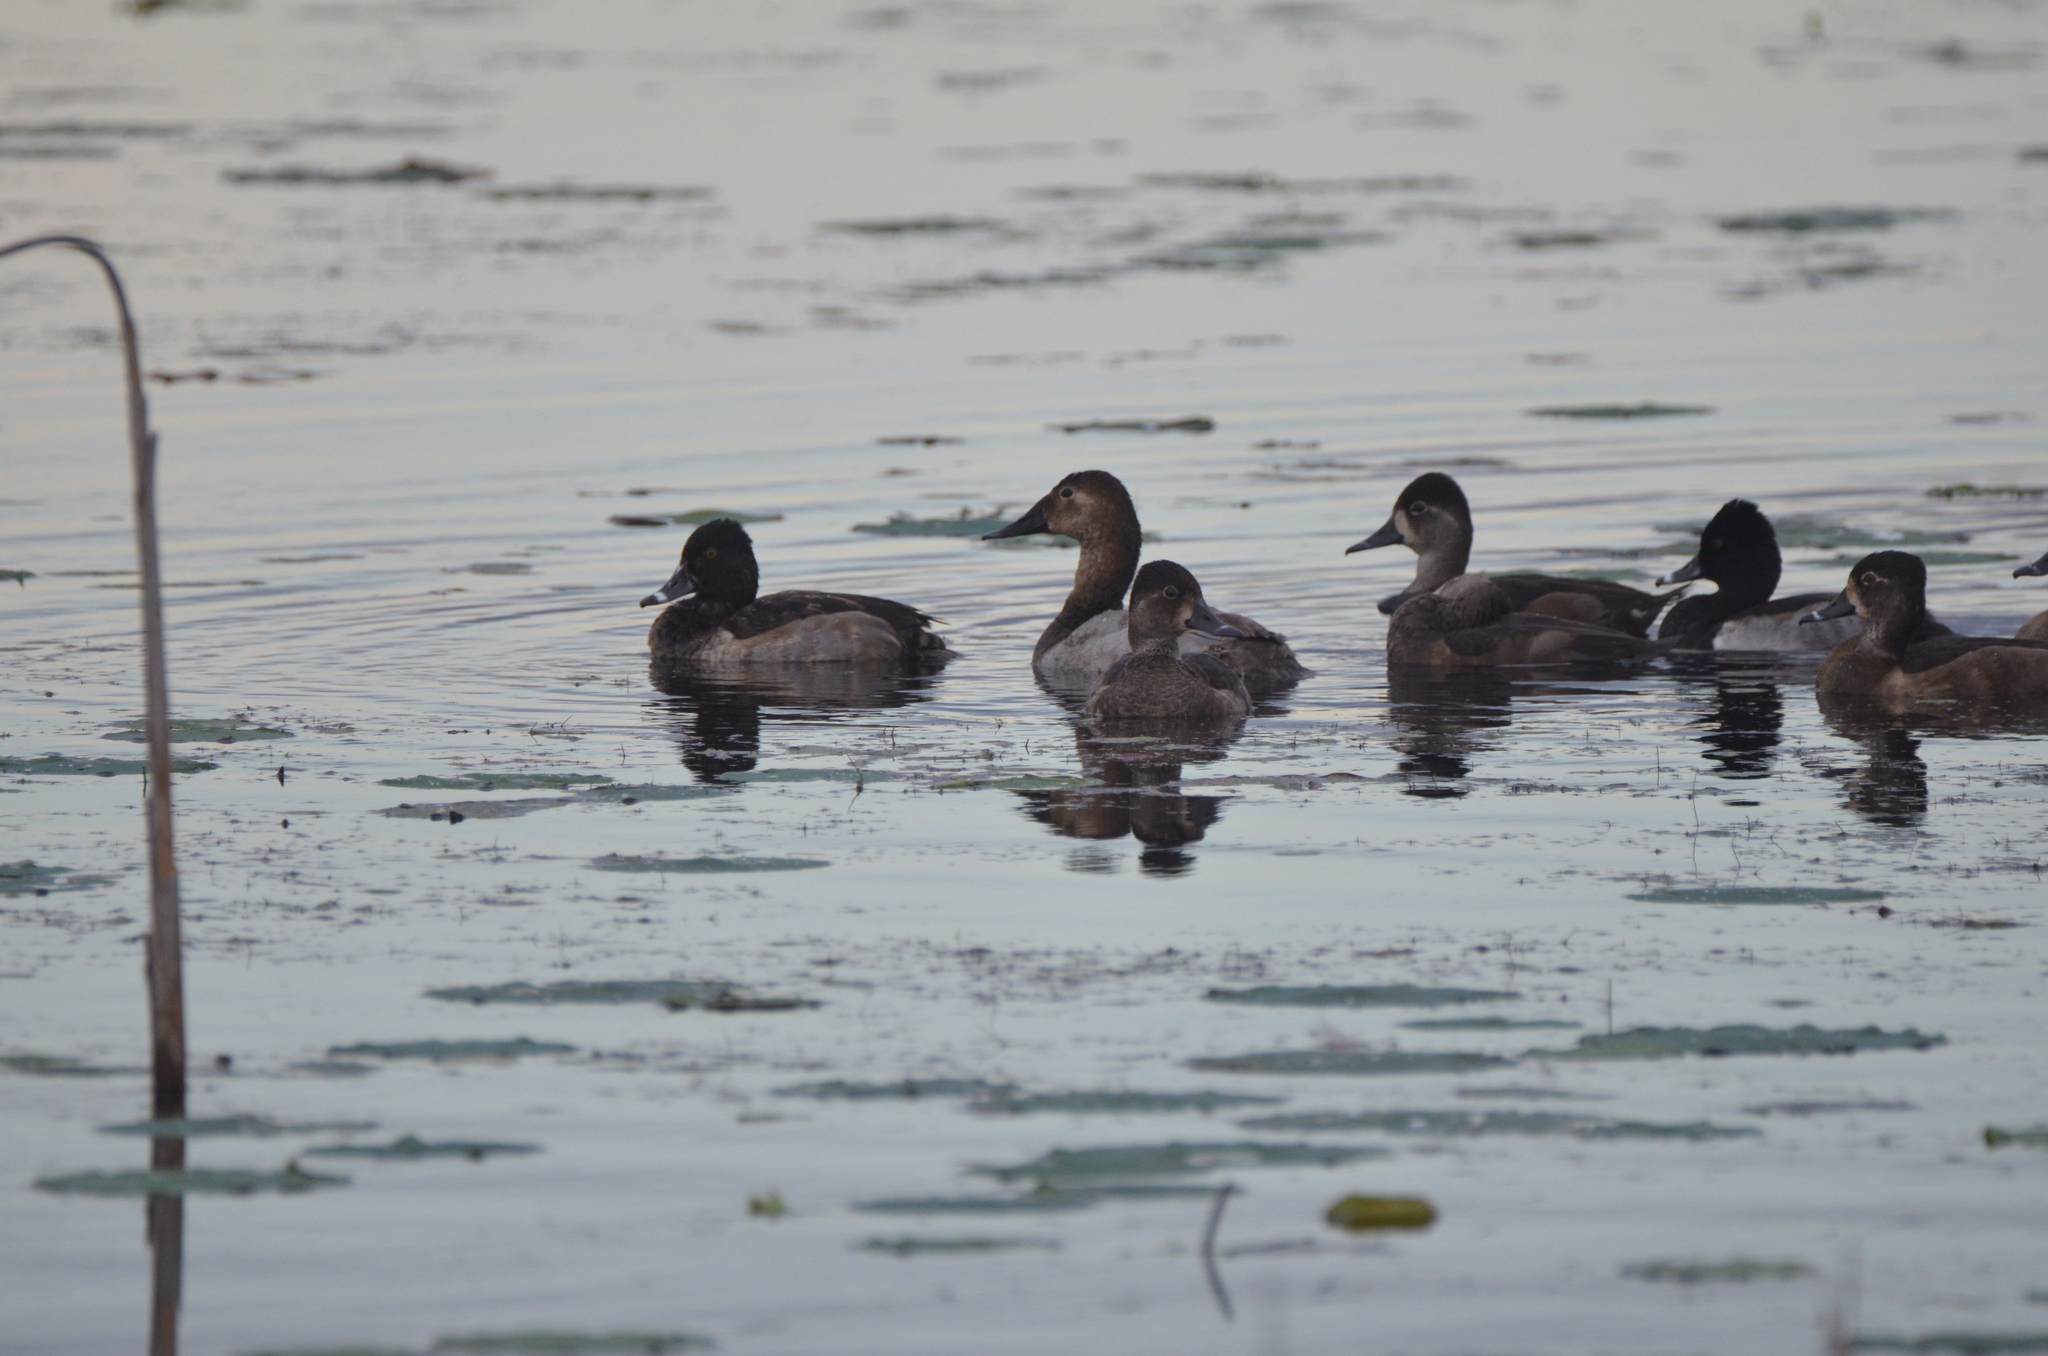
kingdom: Animalia
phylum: Chordata
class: Aves
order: Anseriformes
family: Anatidae
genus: Aythya
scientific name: Aythya collaris
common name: Ring-necked duck
